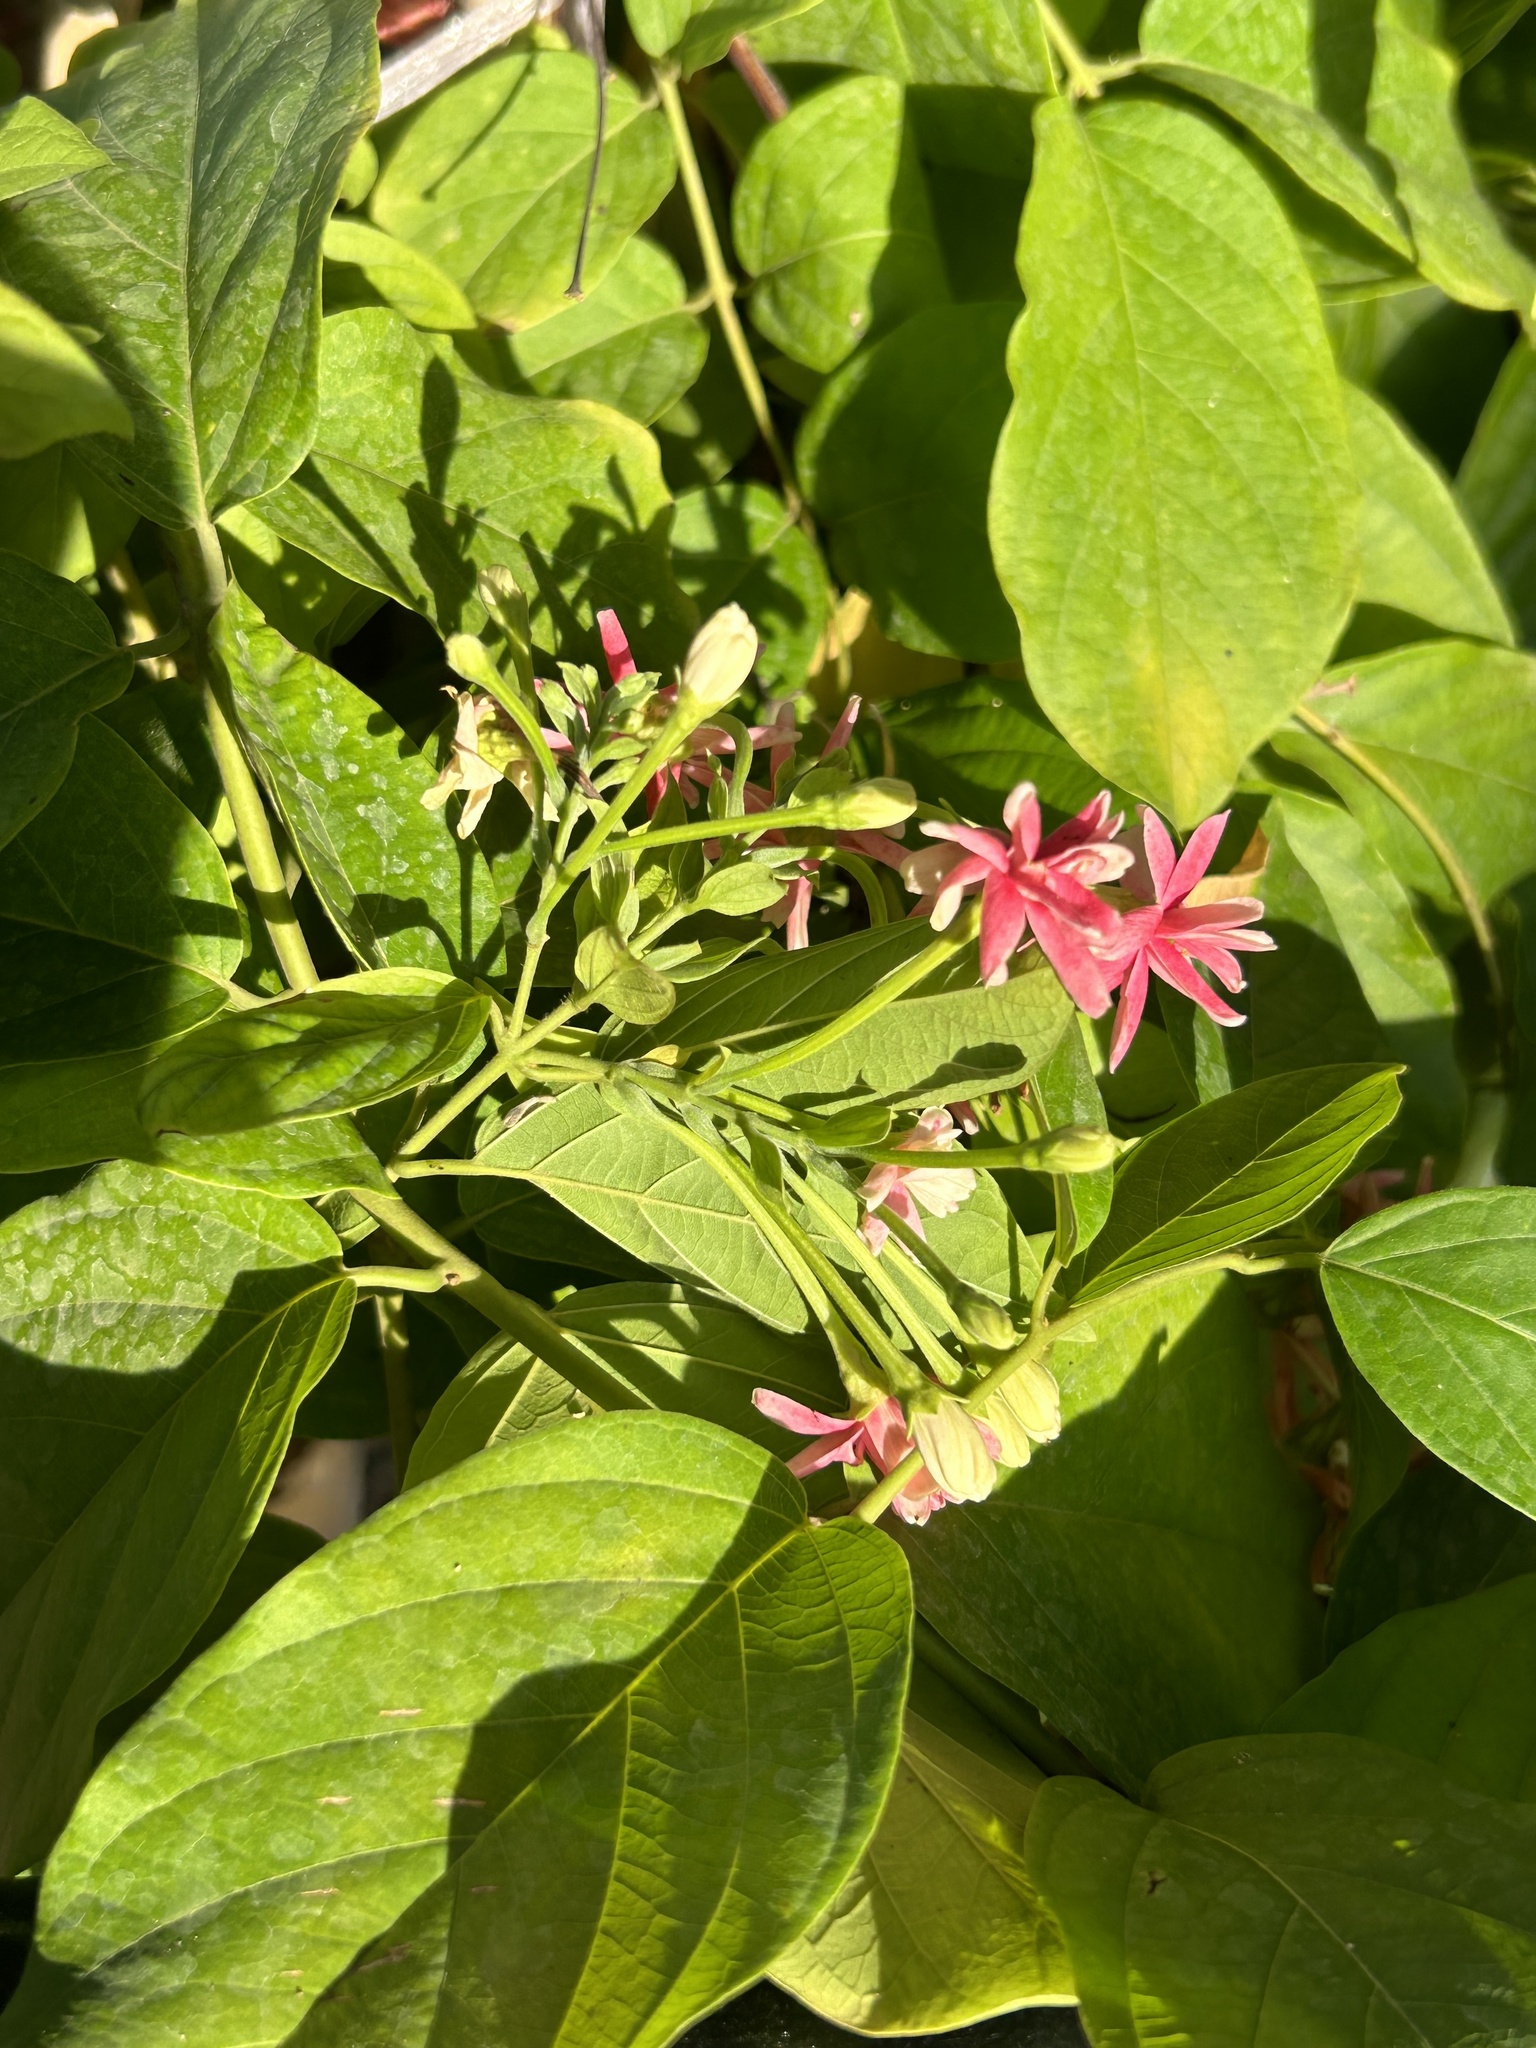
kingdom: Plantae
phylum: Tracheophyta
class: Magnoliopsida
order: Myrtales
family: Combretaceae
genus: Combretum
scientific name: Combretum indicum
